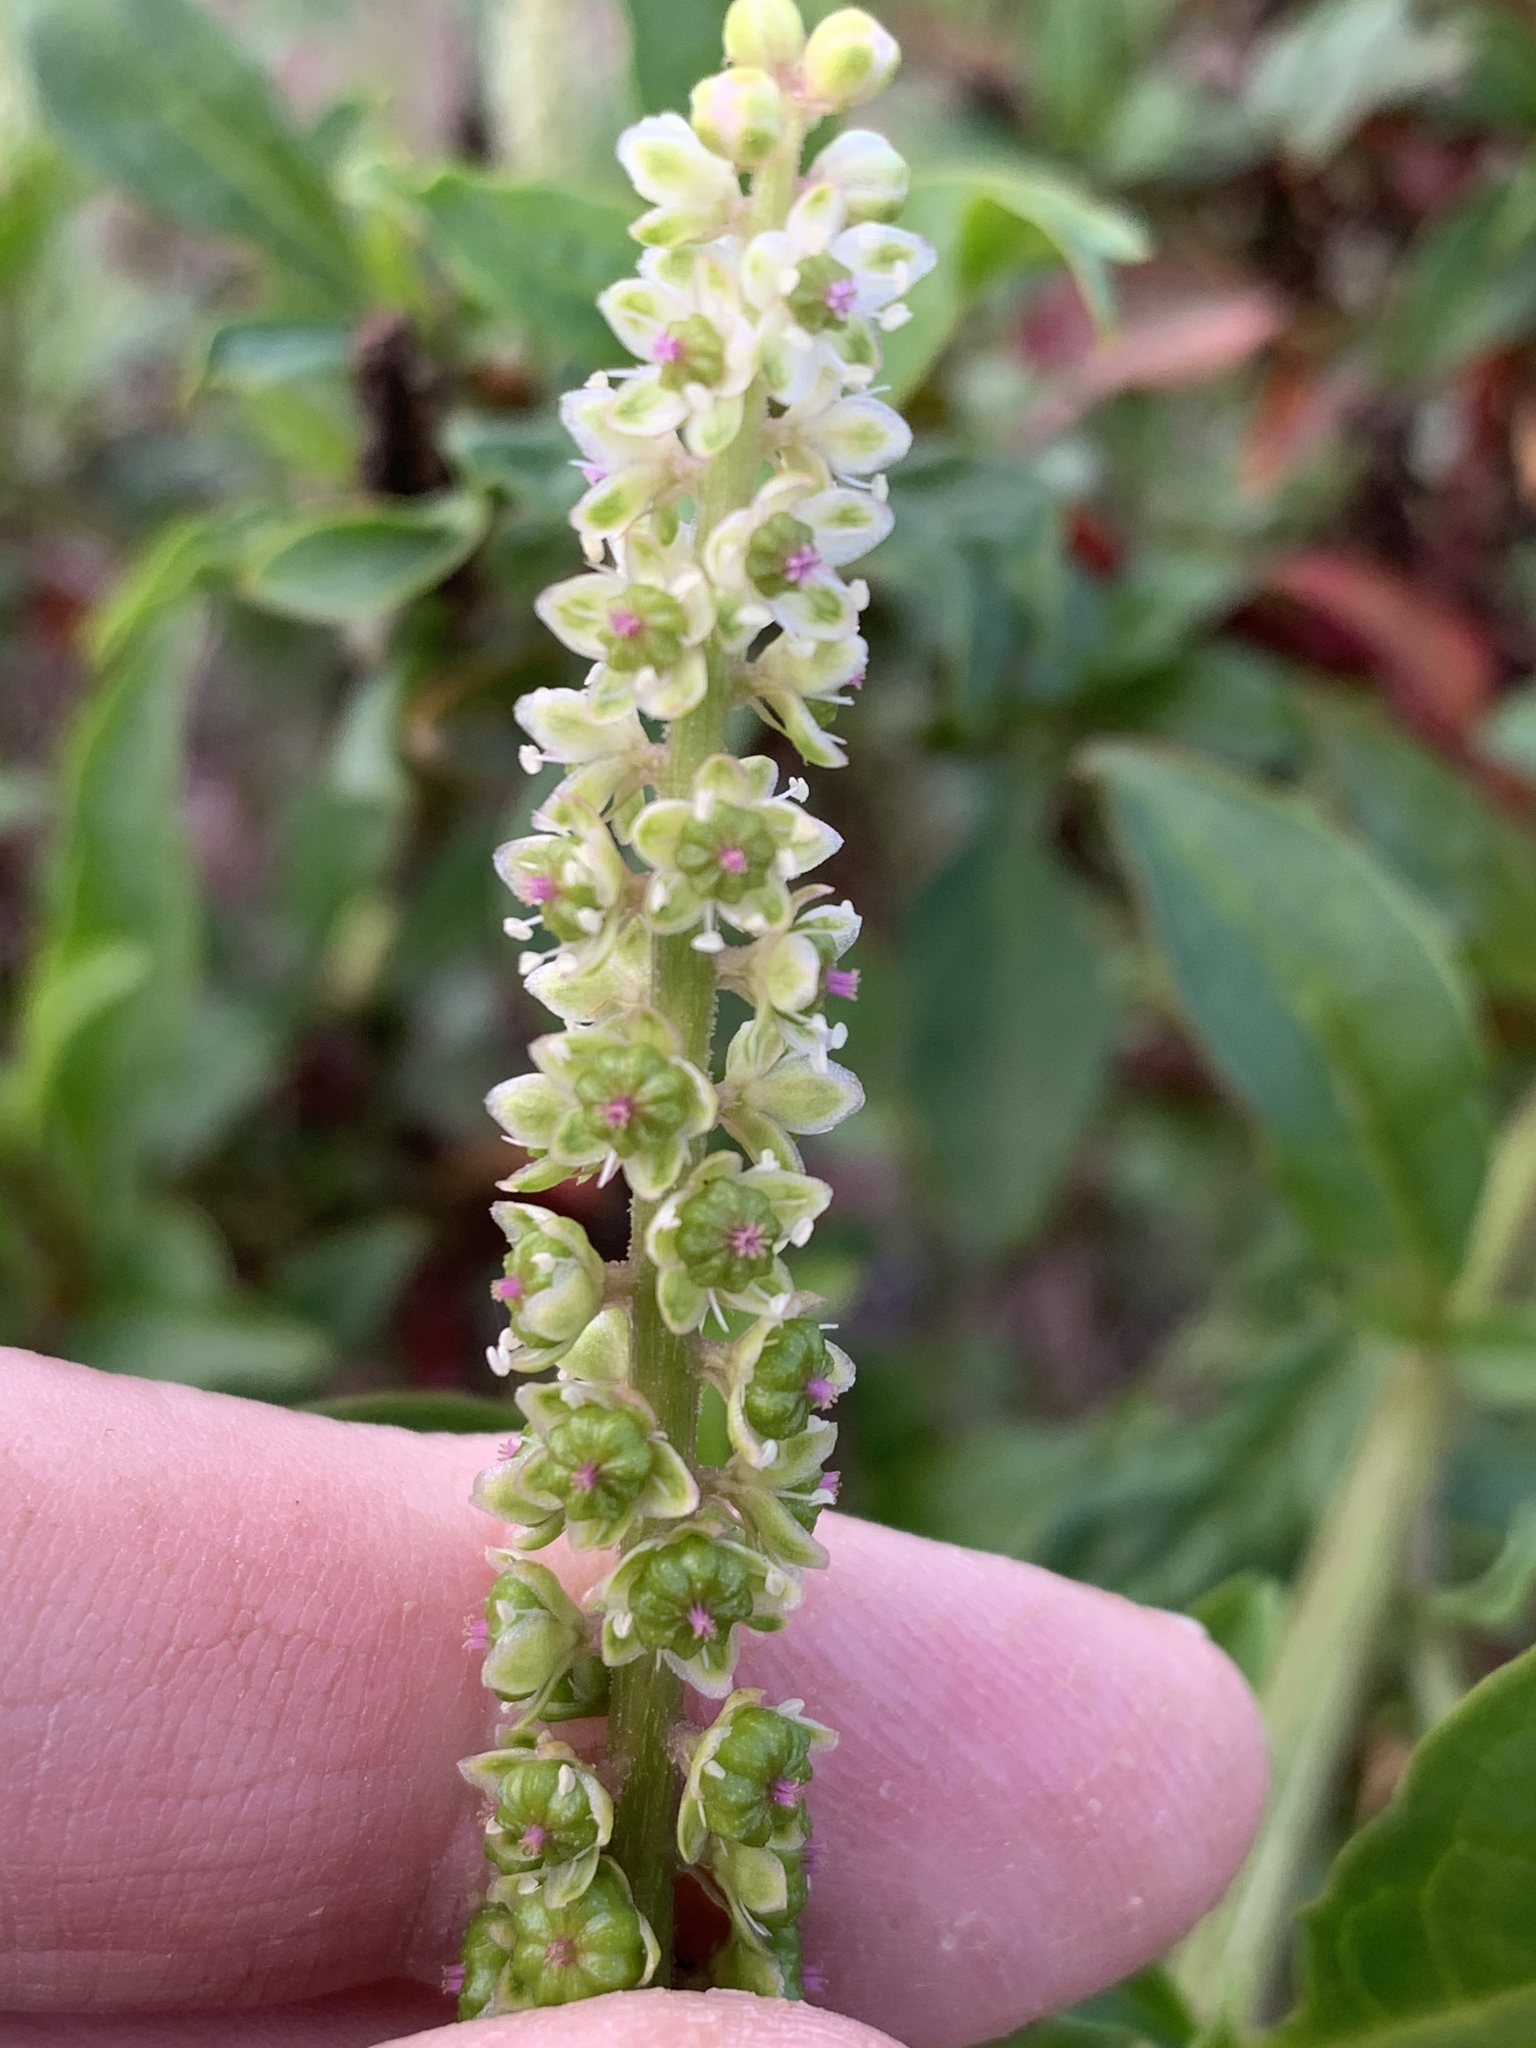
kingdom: Plantae
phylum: Tracheophyta
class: Magnoliopsida
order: Caryophyllales
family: Phytolaccaceae
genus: Phytolacca
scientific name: Phytolacca icosandra
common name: Button pokeweed
